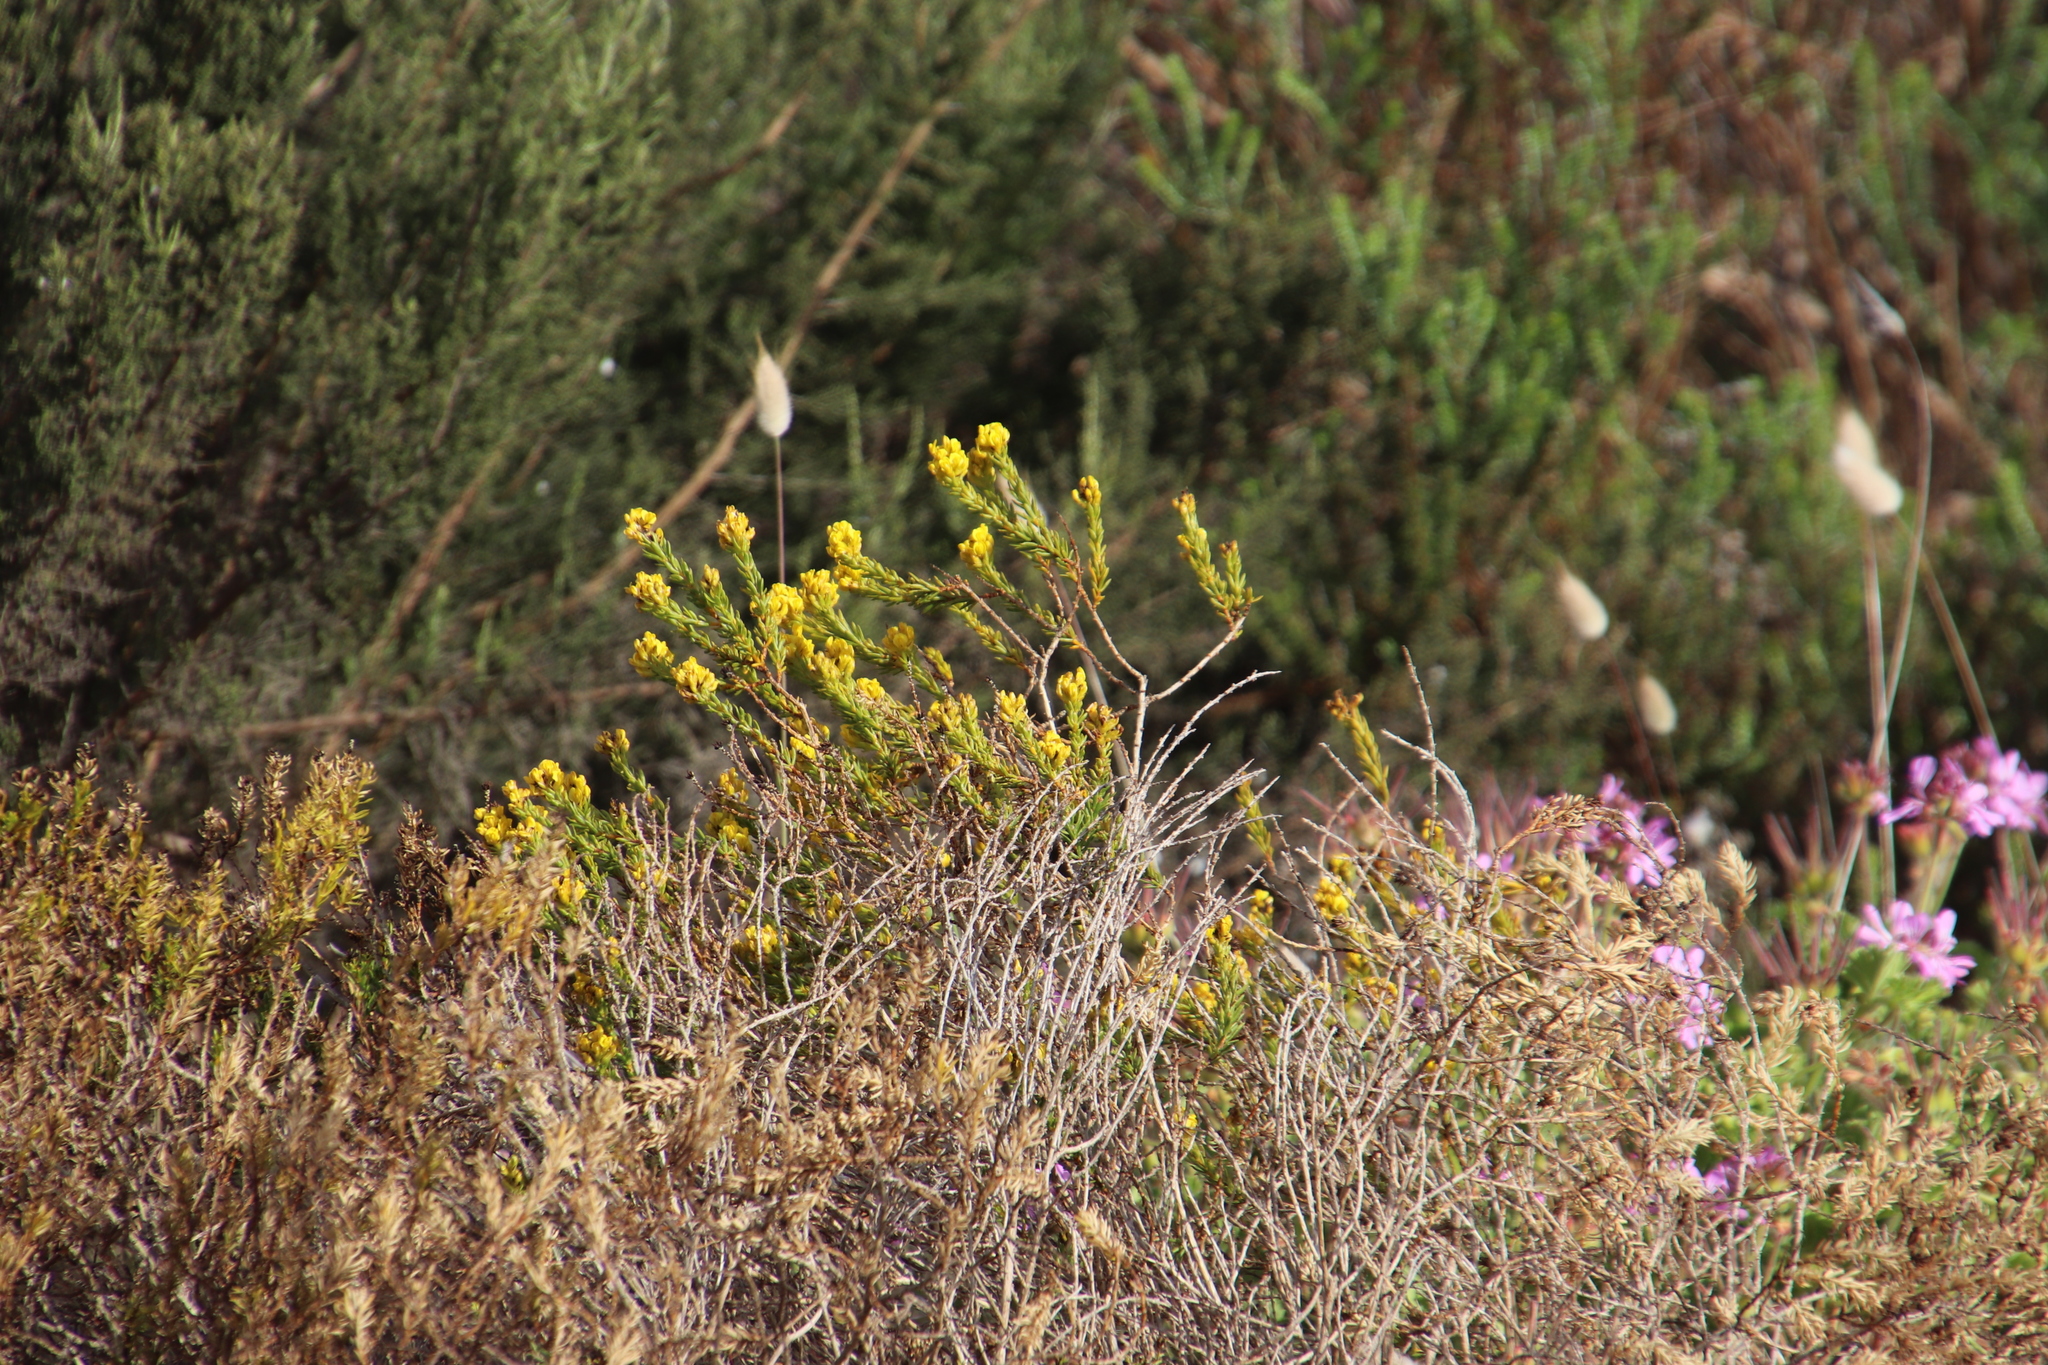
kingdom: Plantae
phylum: Tracheophyta
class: Magnoliopsida
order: Fabales
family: Fabaceae
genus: Aspalathus
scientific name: Aspalathus callosa
